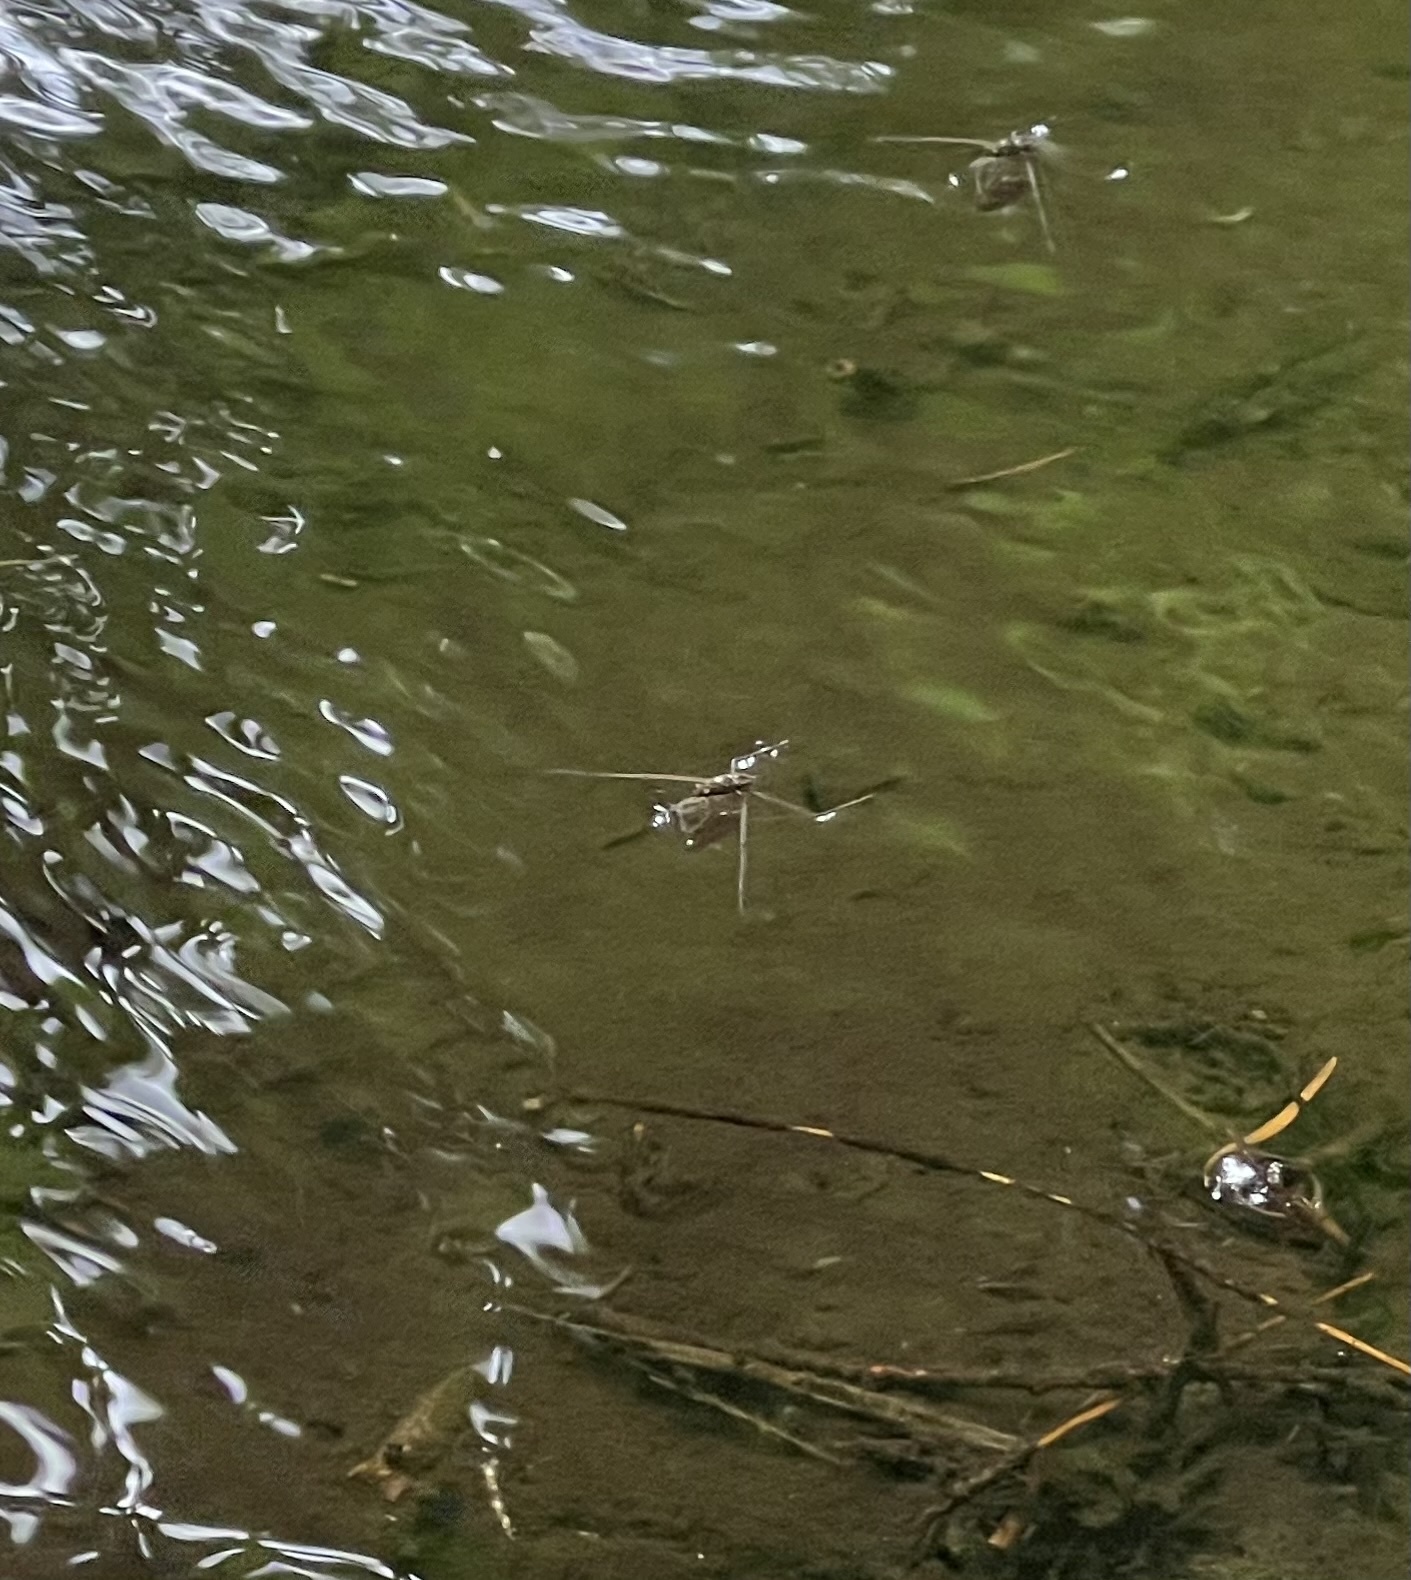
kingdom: Animalia
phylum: Arthropoda
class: Insecta
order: Hemiptera
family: Gerridae
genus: Aquarius
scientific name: Aquarius remigis
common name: Common water strider
